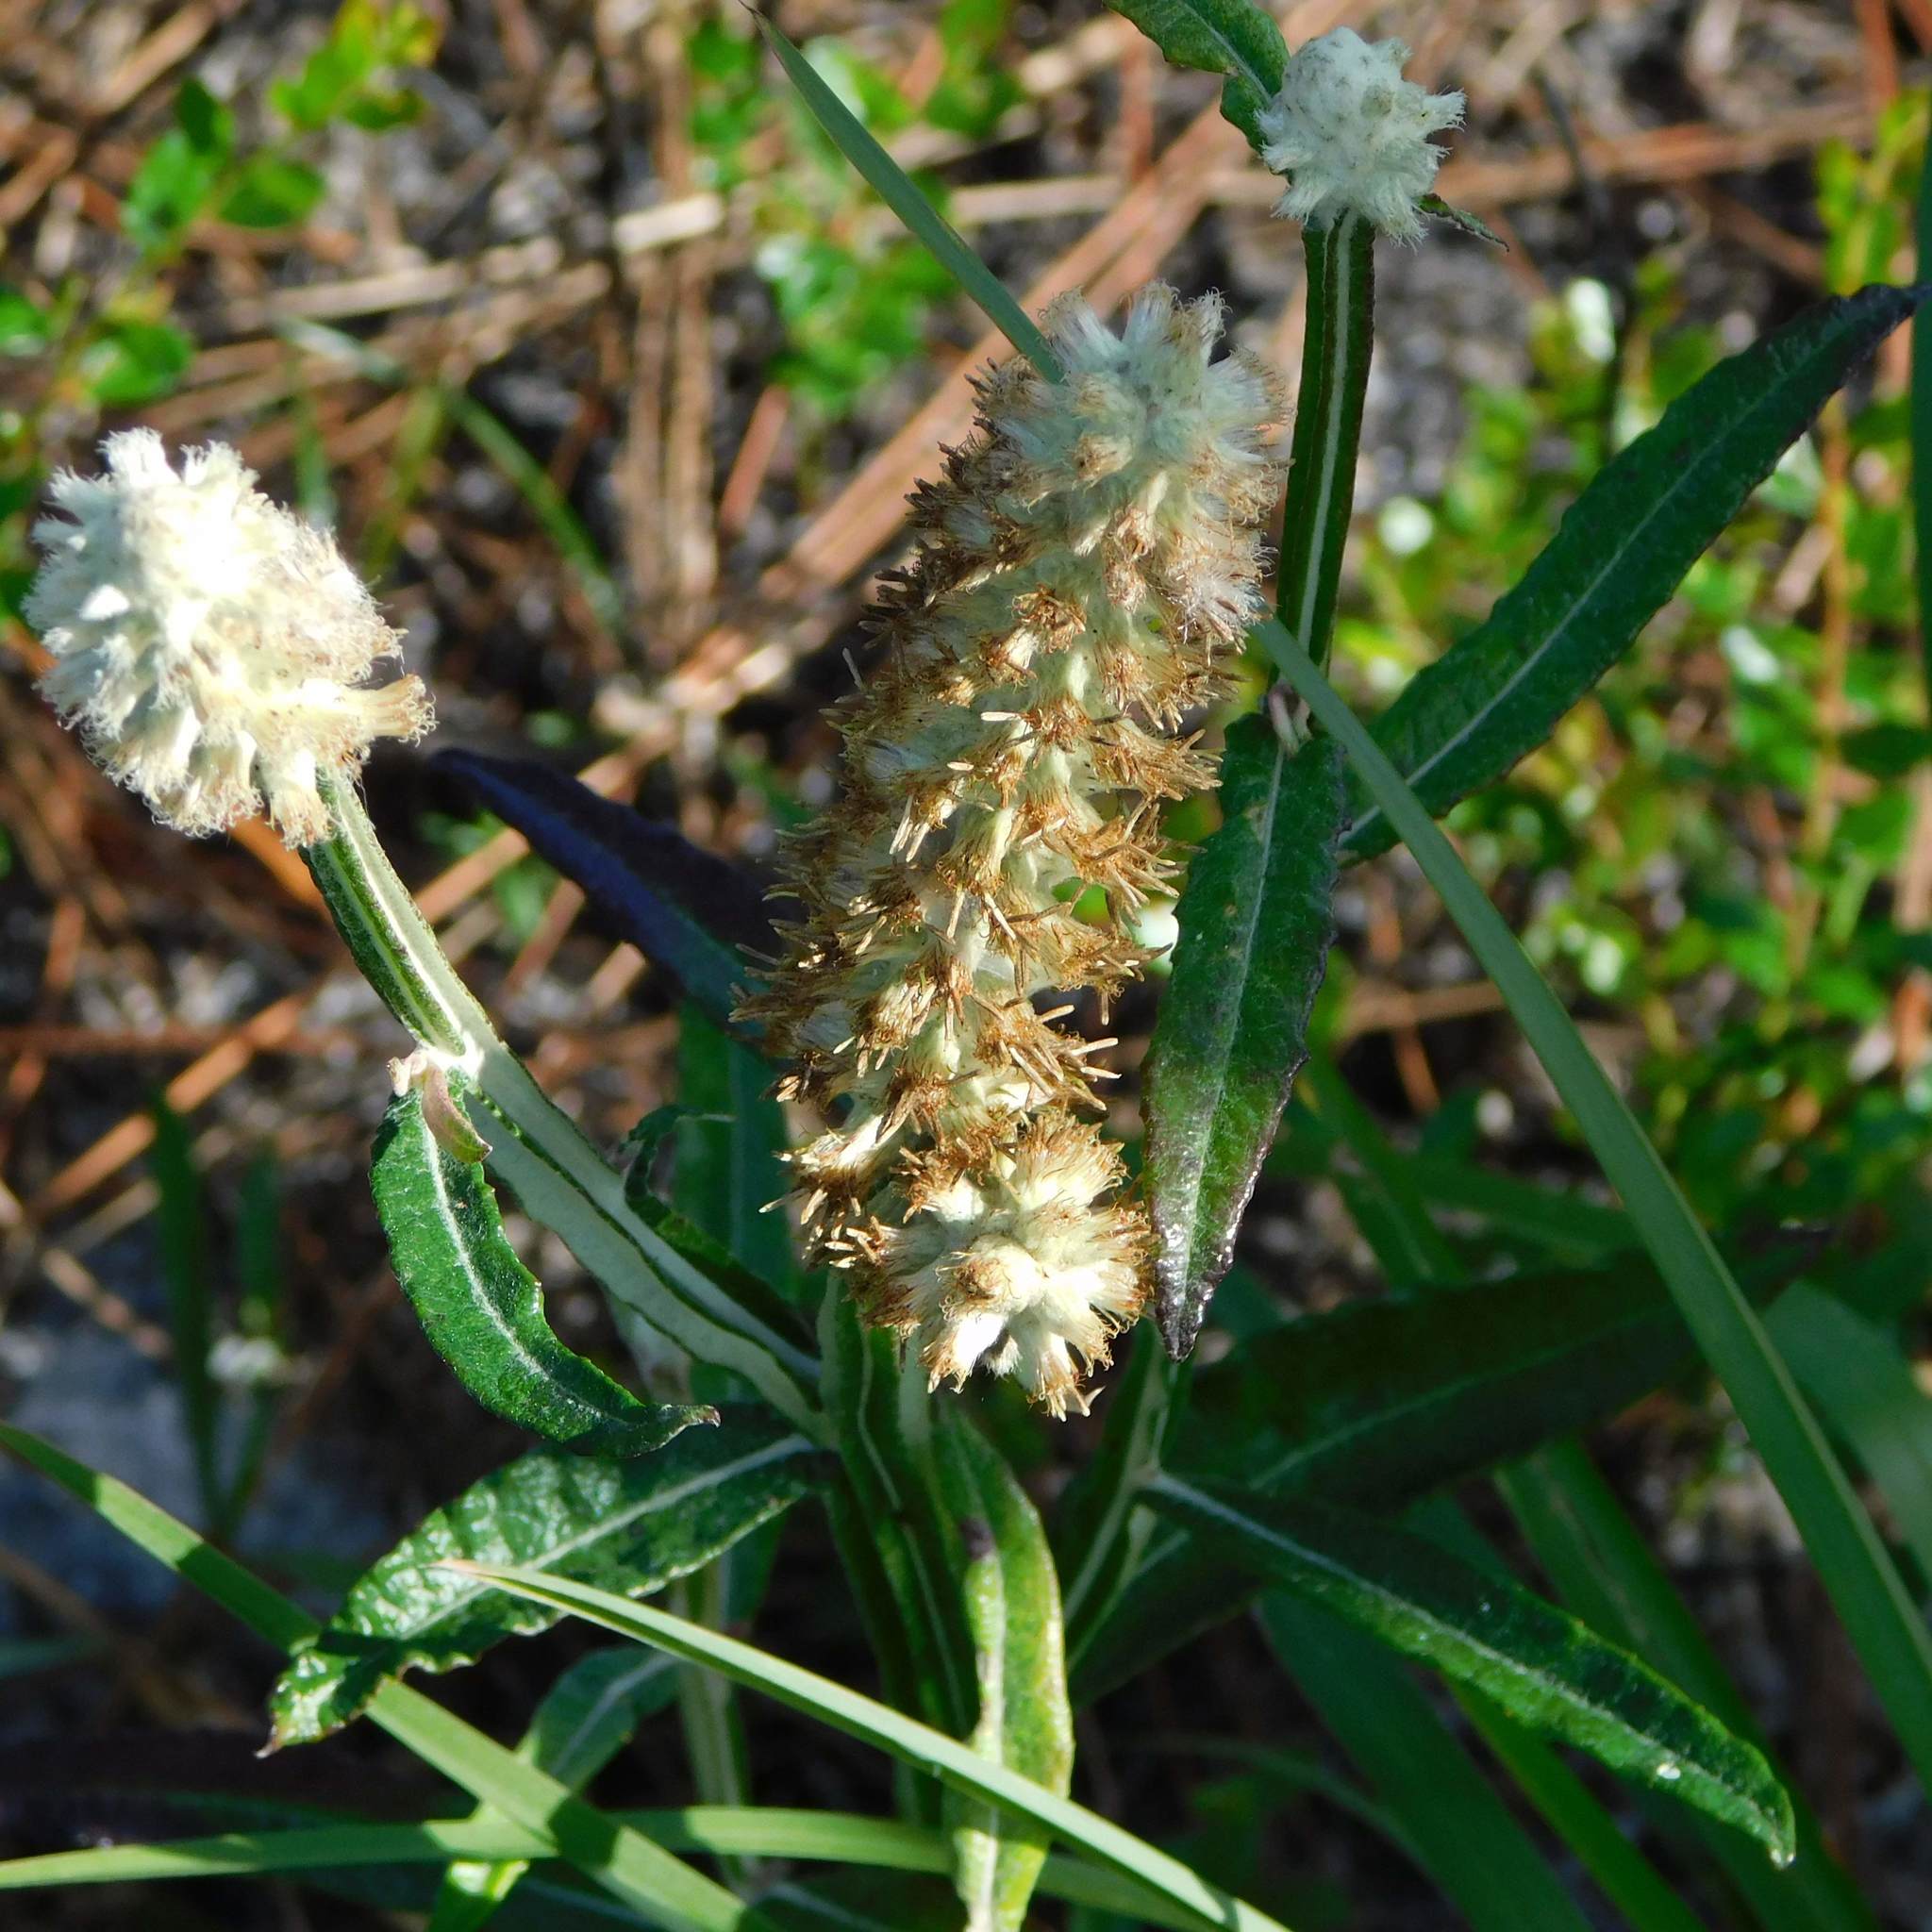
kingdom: Plantae
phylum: Tracheophyta
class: Magnoliopsida
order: Asterales
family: Asteraceae
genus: Pterocaulon
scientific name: Pterocaulon pycnostachyum
